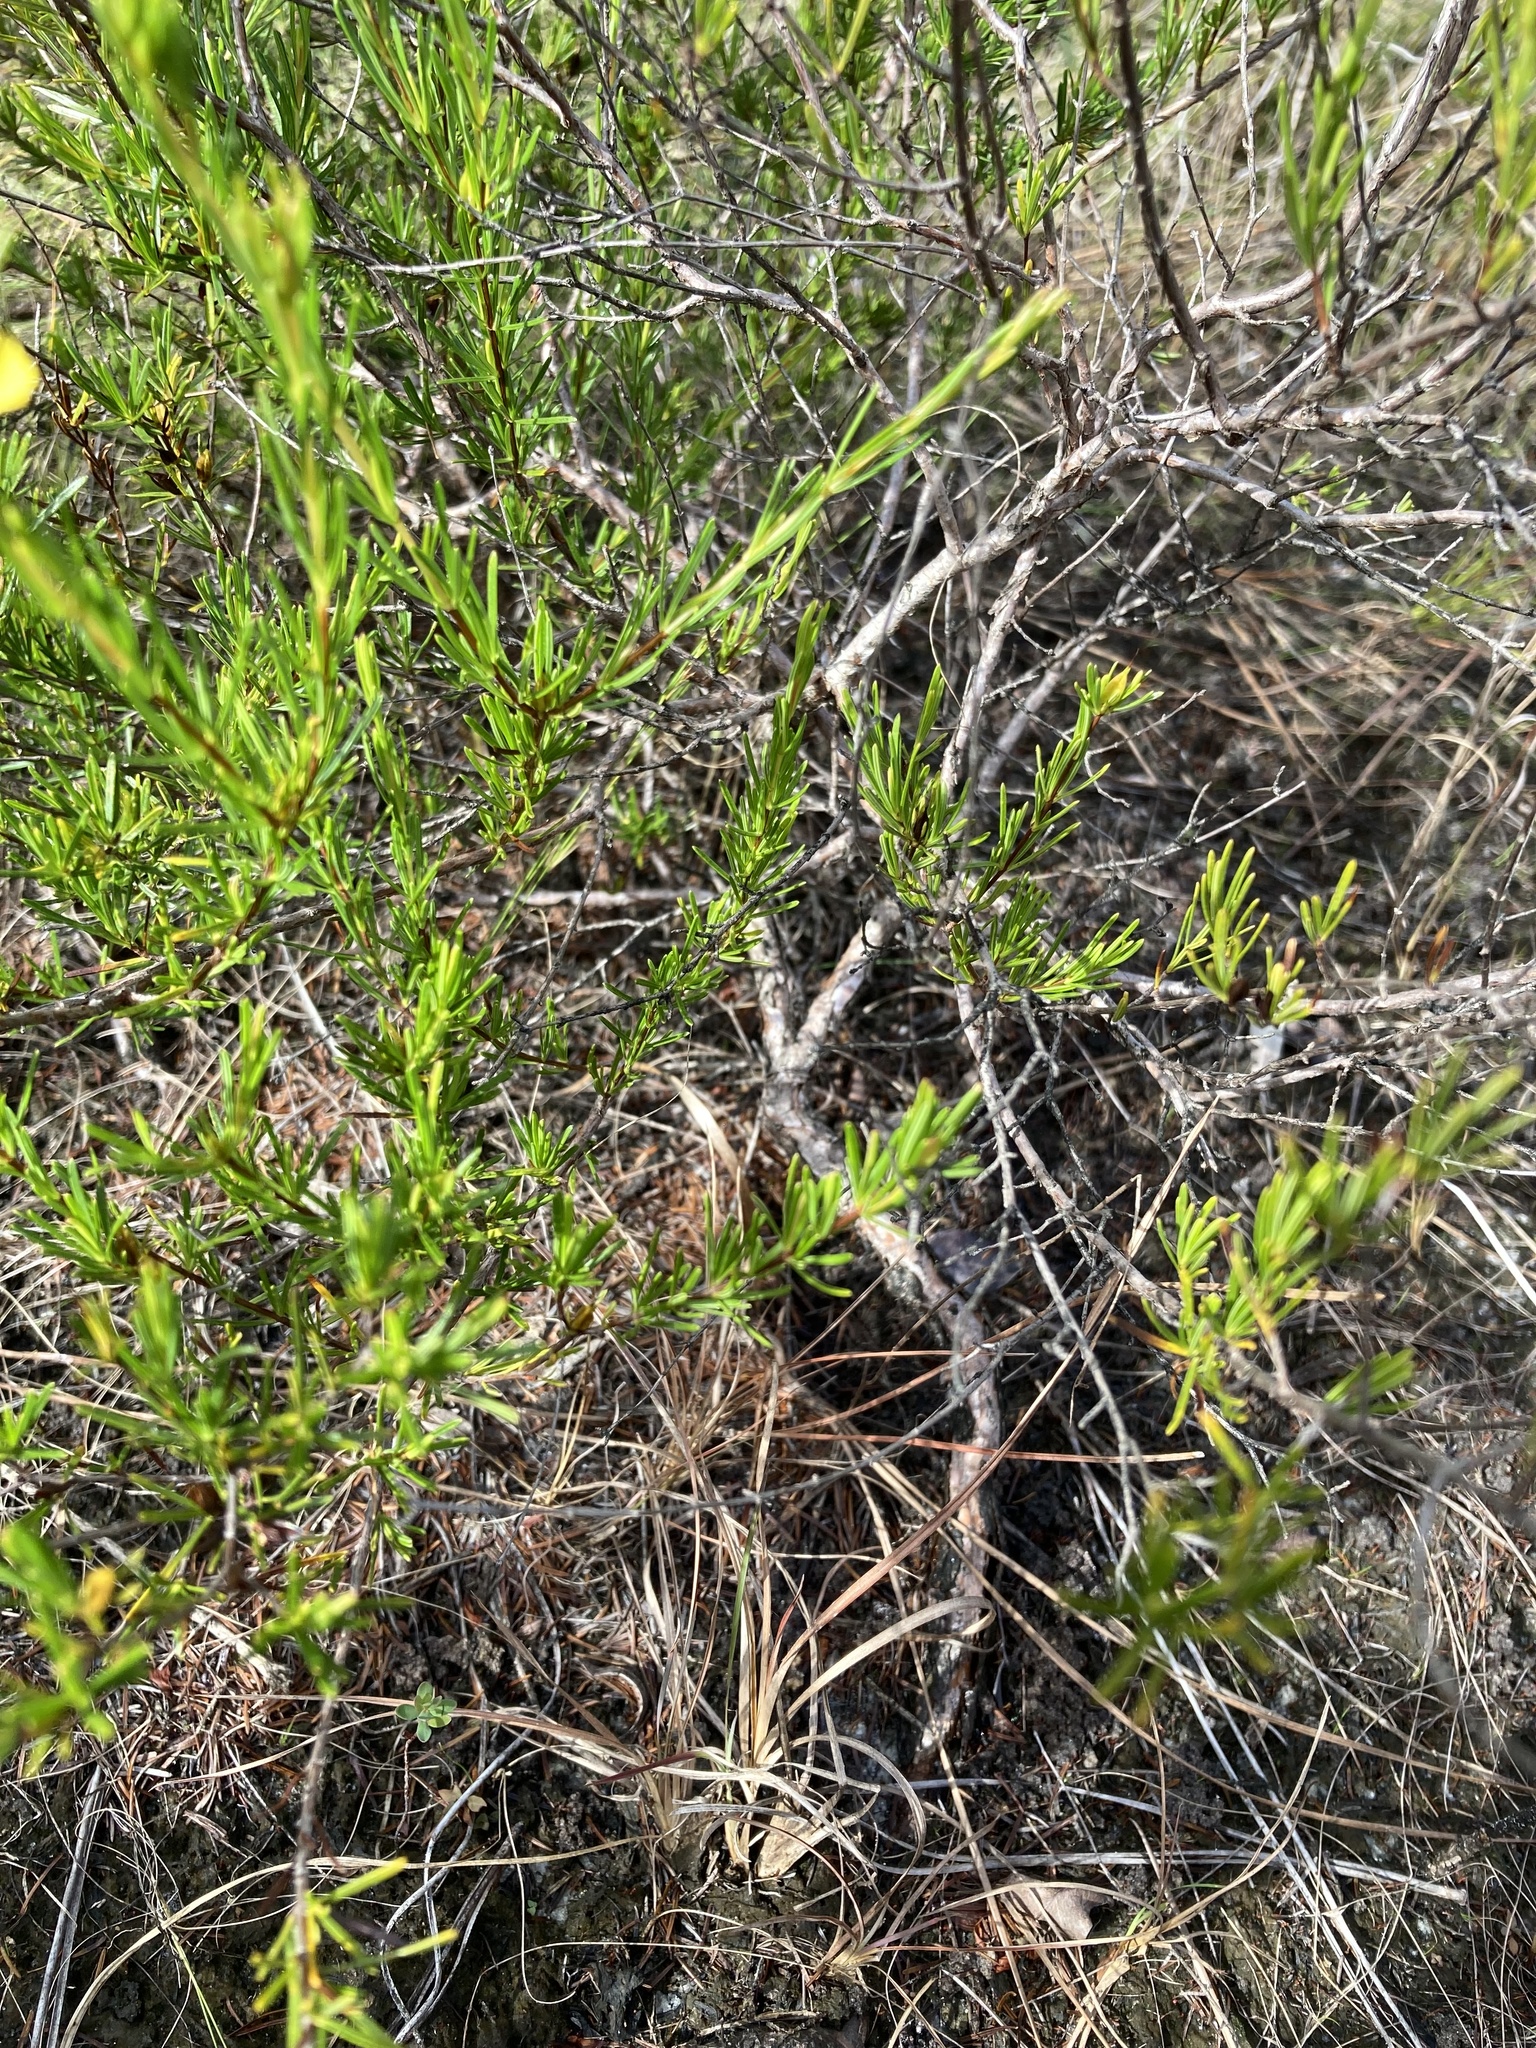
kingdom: Plantae
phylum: Tracheophyta
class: Magnoliopsida
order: Malpighiales
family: Hypericaceae
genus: Hypericum
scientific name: Hypericum fasciculatum
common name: Peelbark st. john's wort
